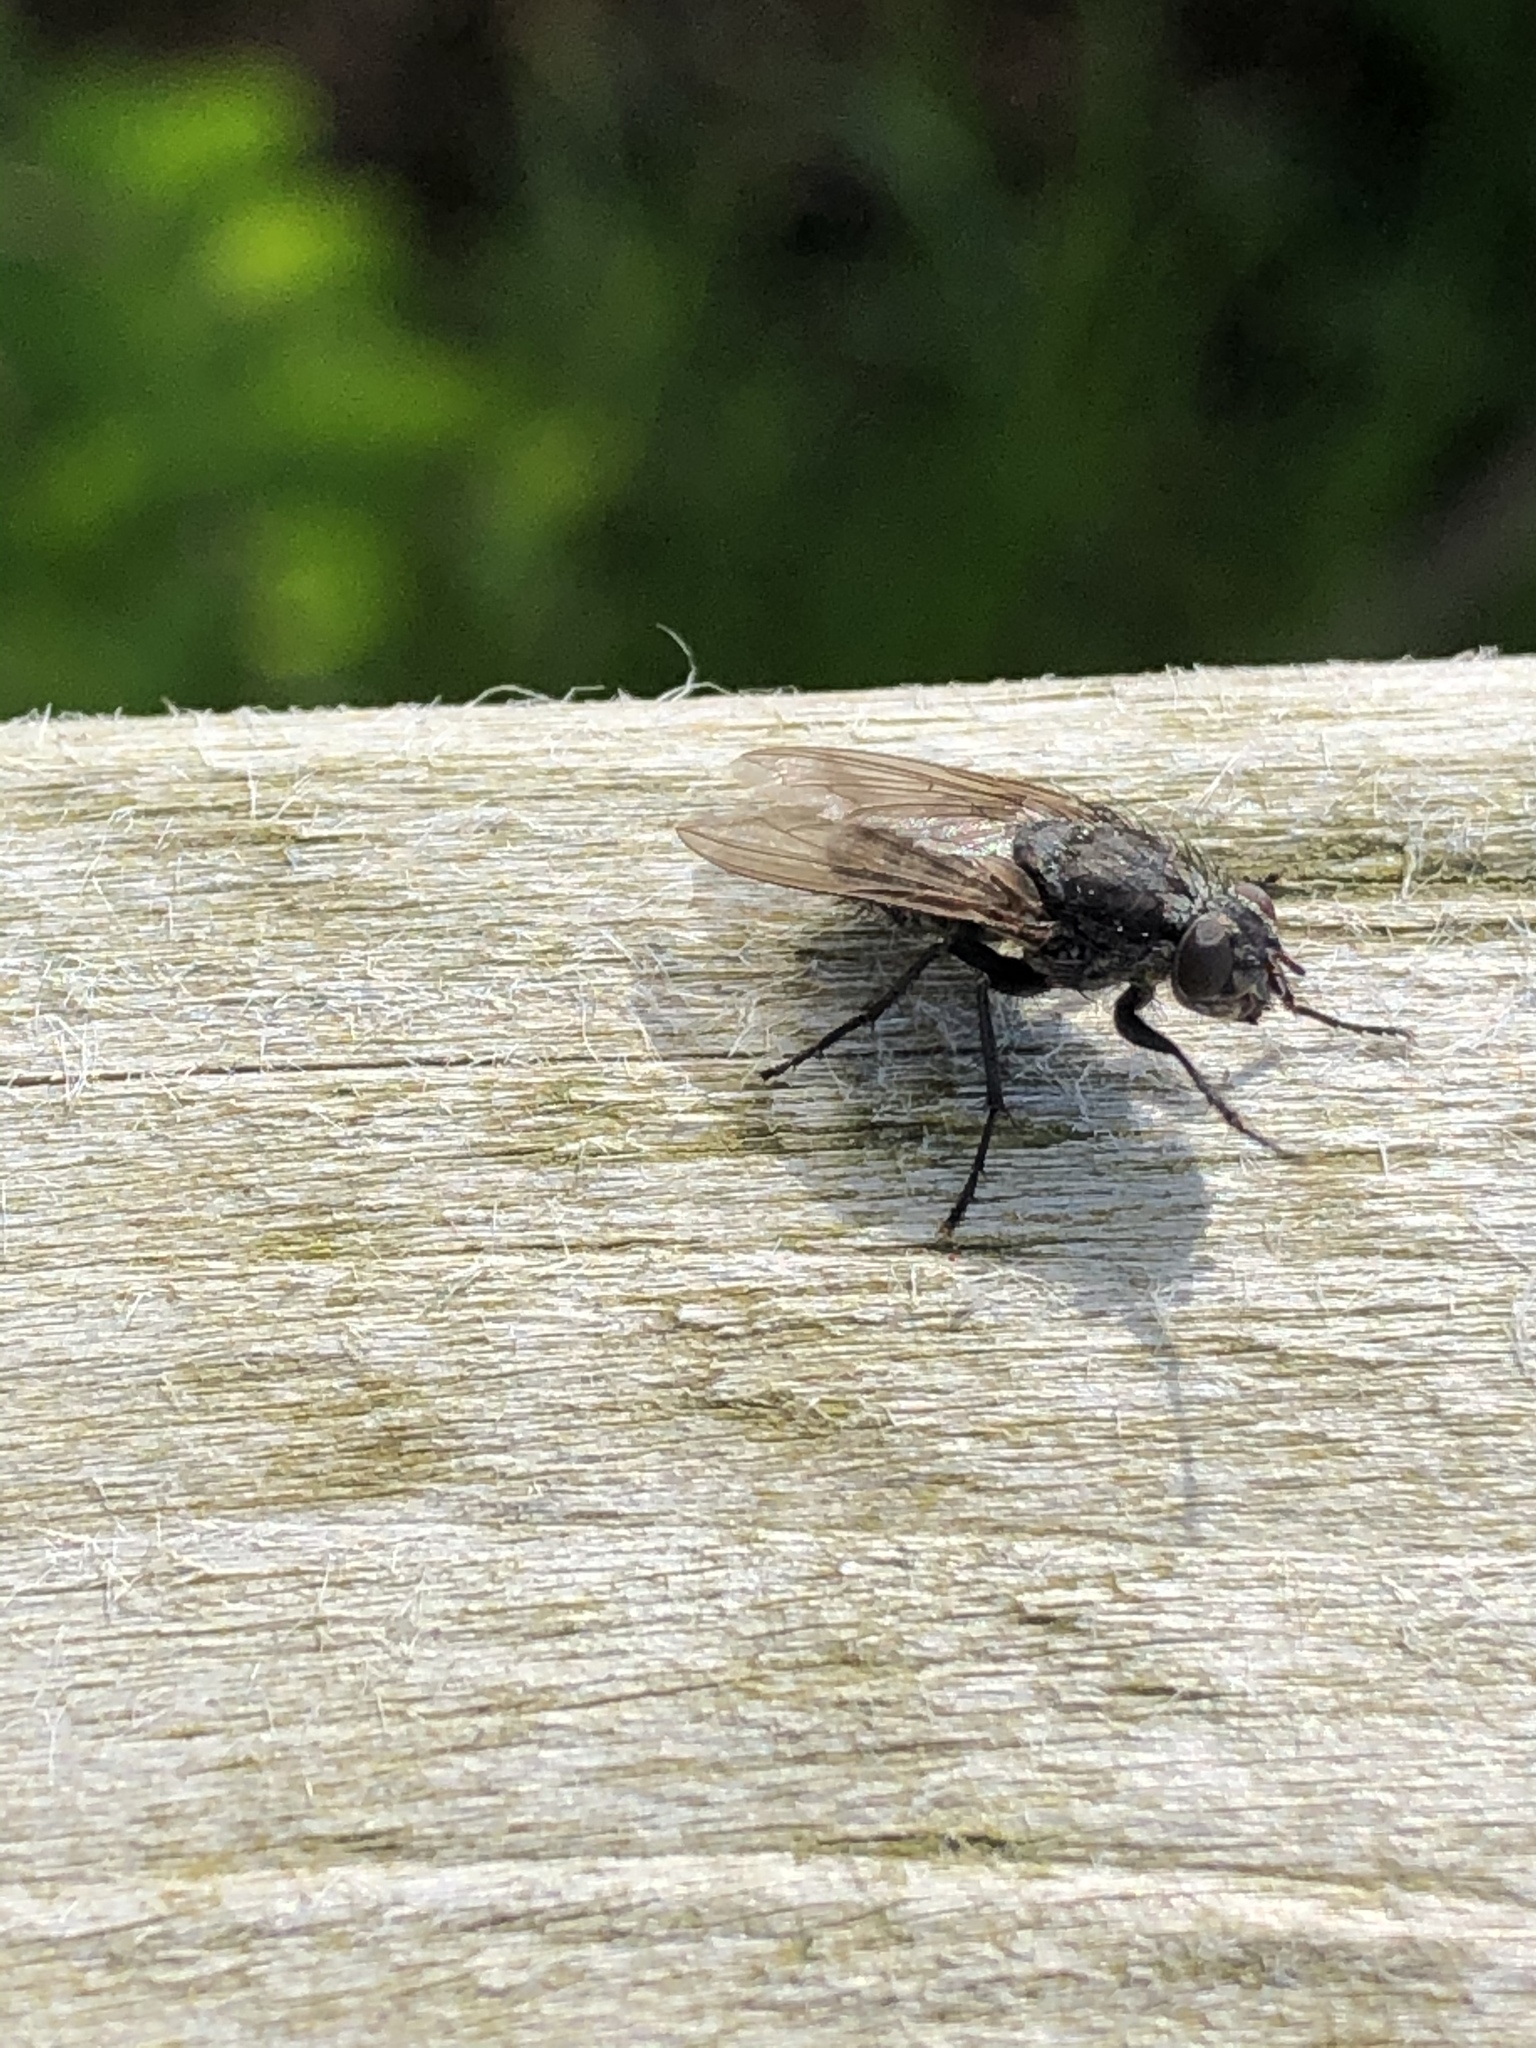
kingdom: Animalia
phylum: Arthropoda
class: Insecta
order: Diptera
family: Polleniidae
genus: Pollenia
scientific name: Pollenia vagabunda
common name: Vagabund cluster fly
